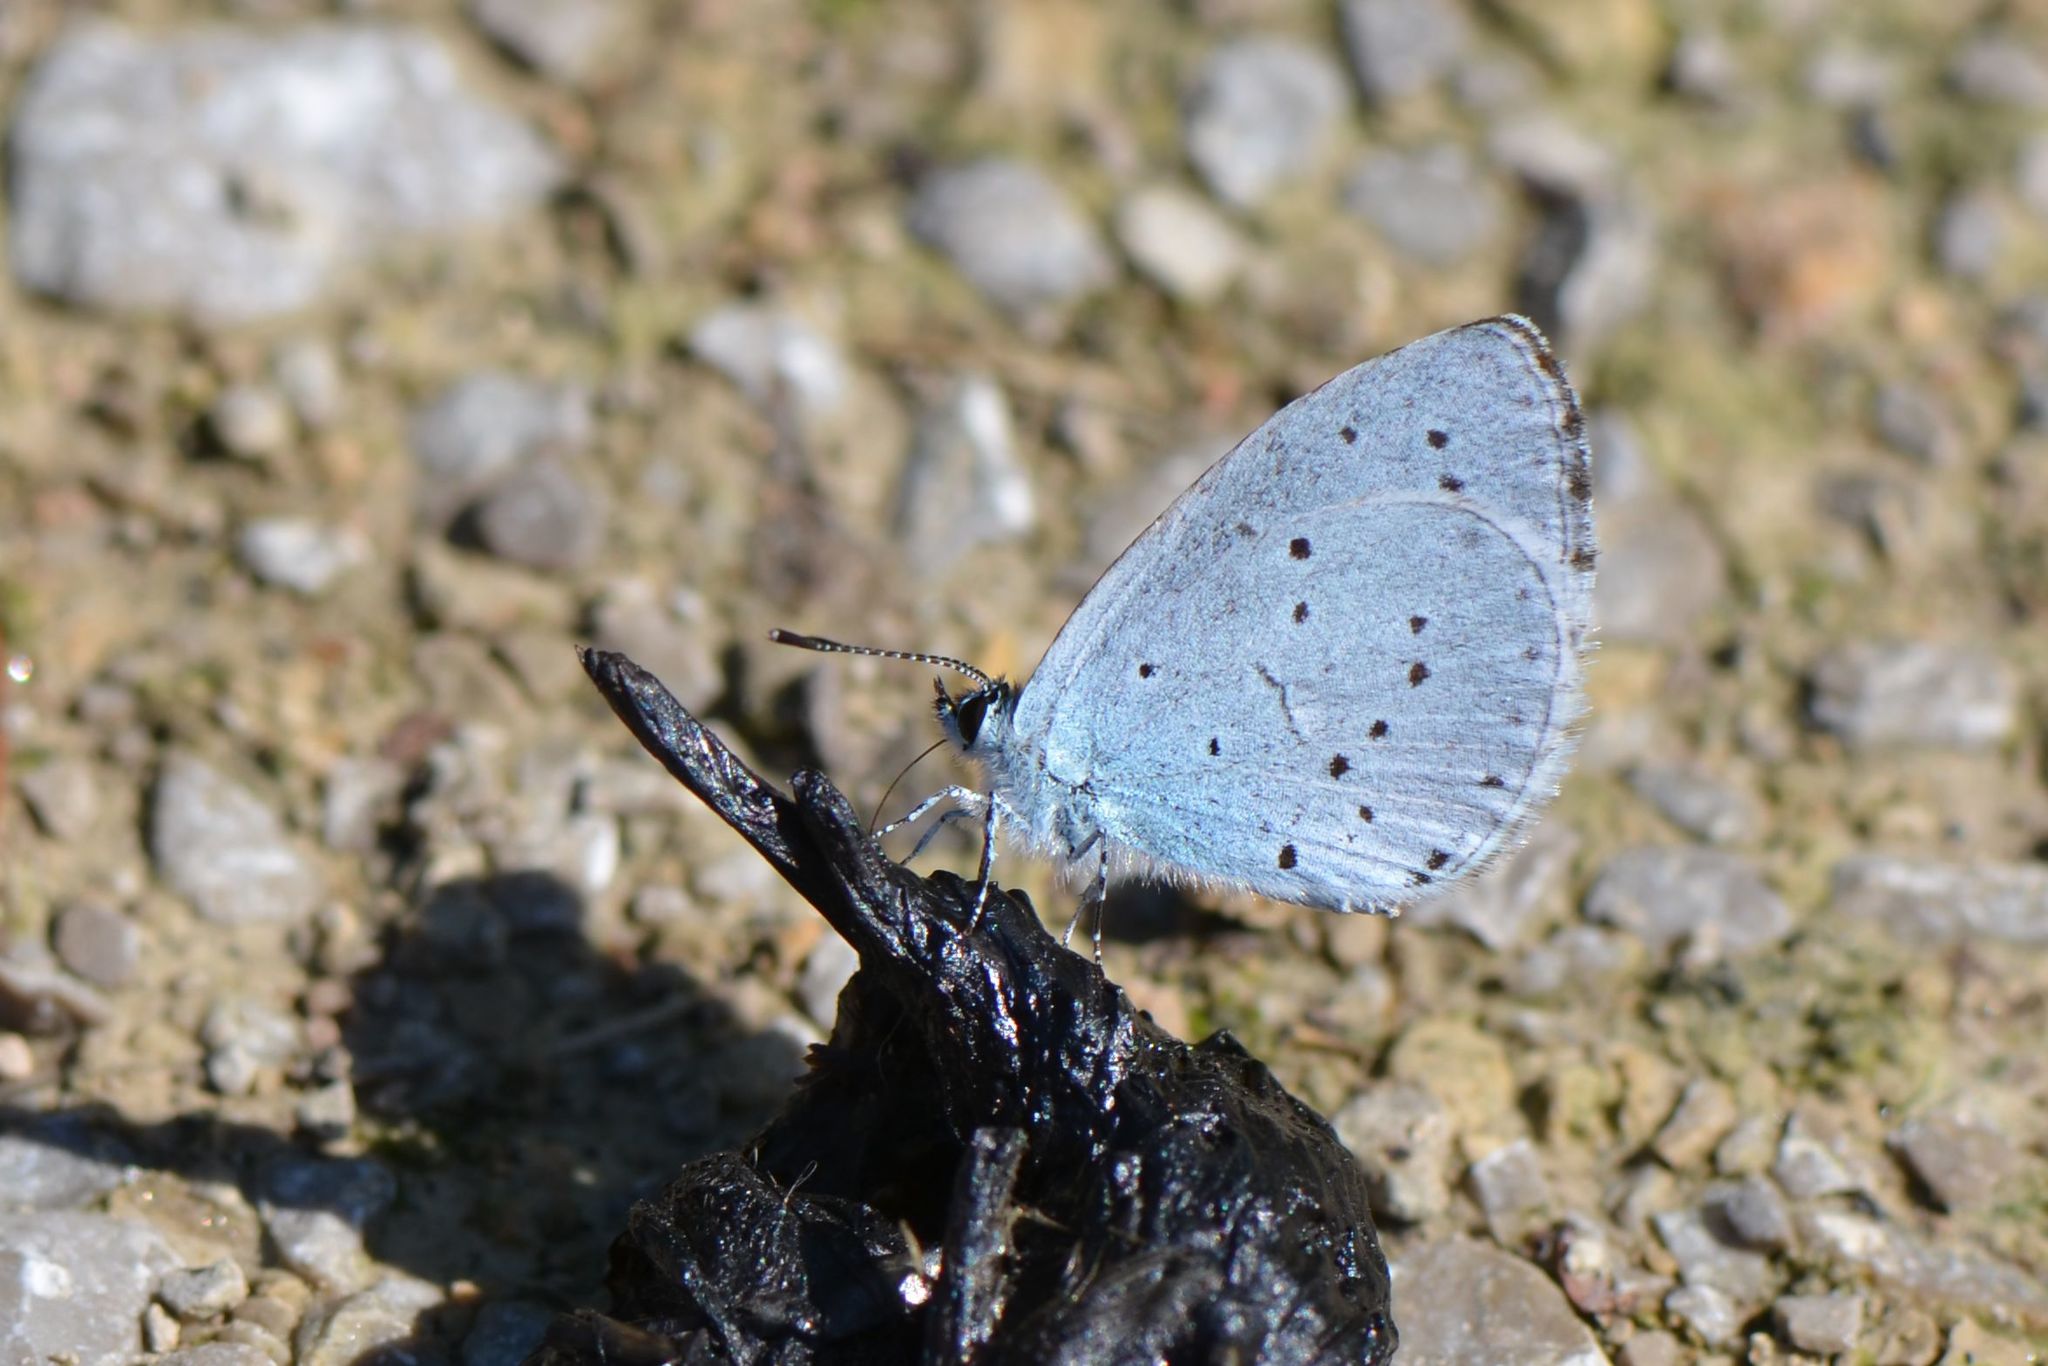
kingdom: Animalia
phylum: Arthropoda
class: Insecta
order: Lepidoptera
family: Lycaenidae
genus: Celastrina
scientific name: Celastrina argiolus
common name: Holly blue
